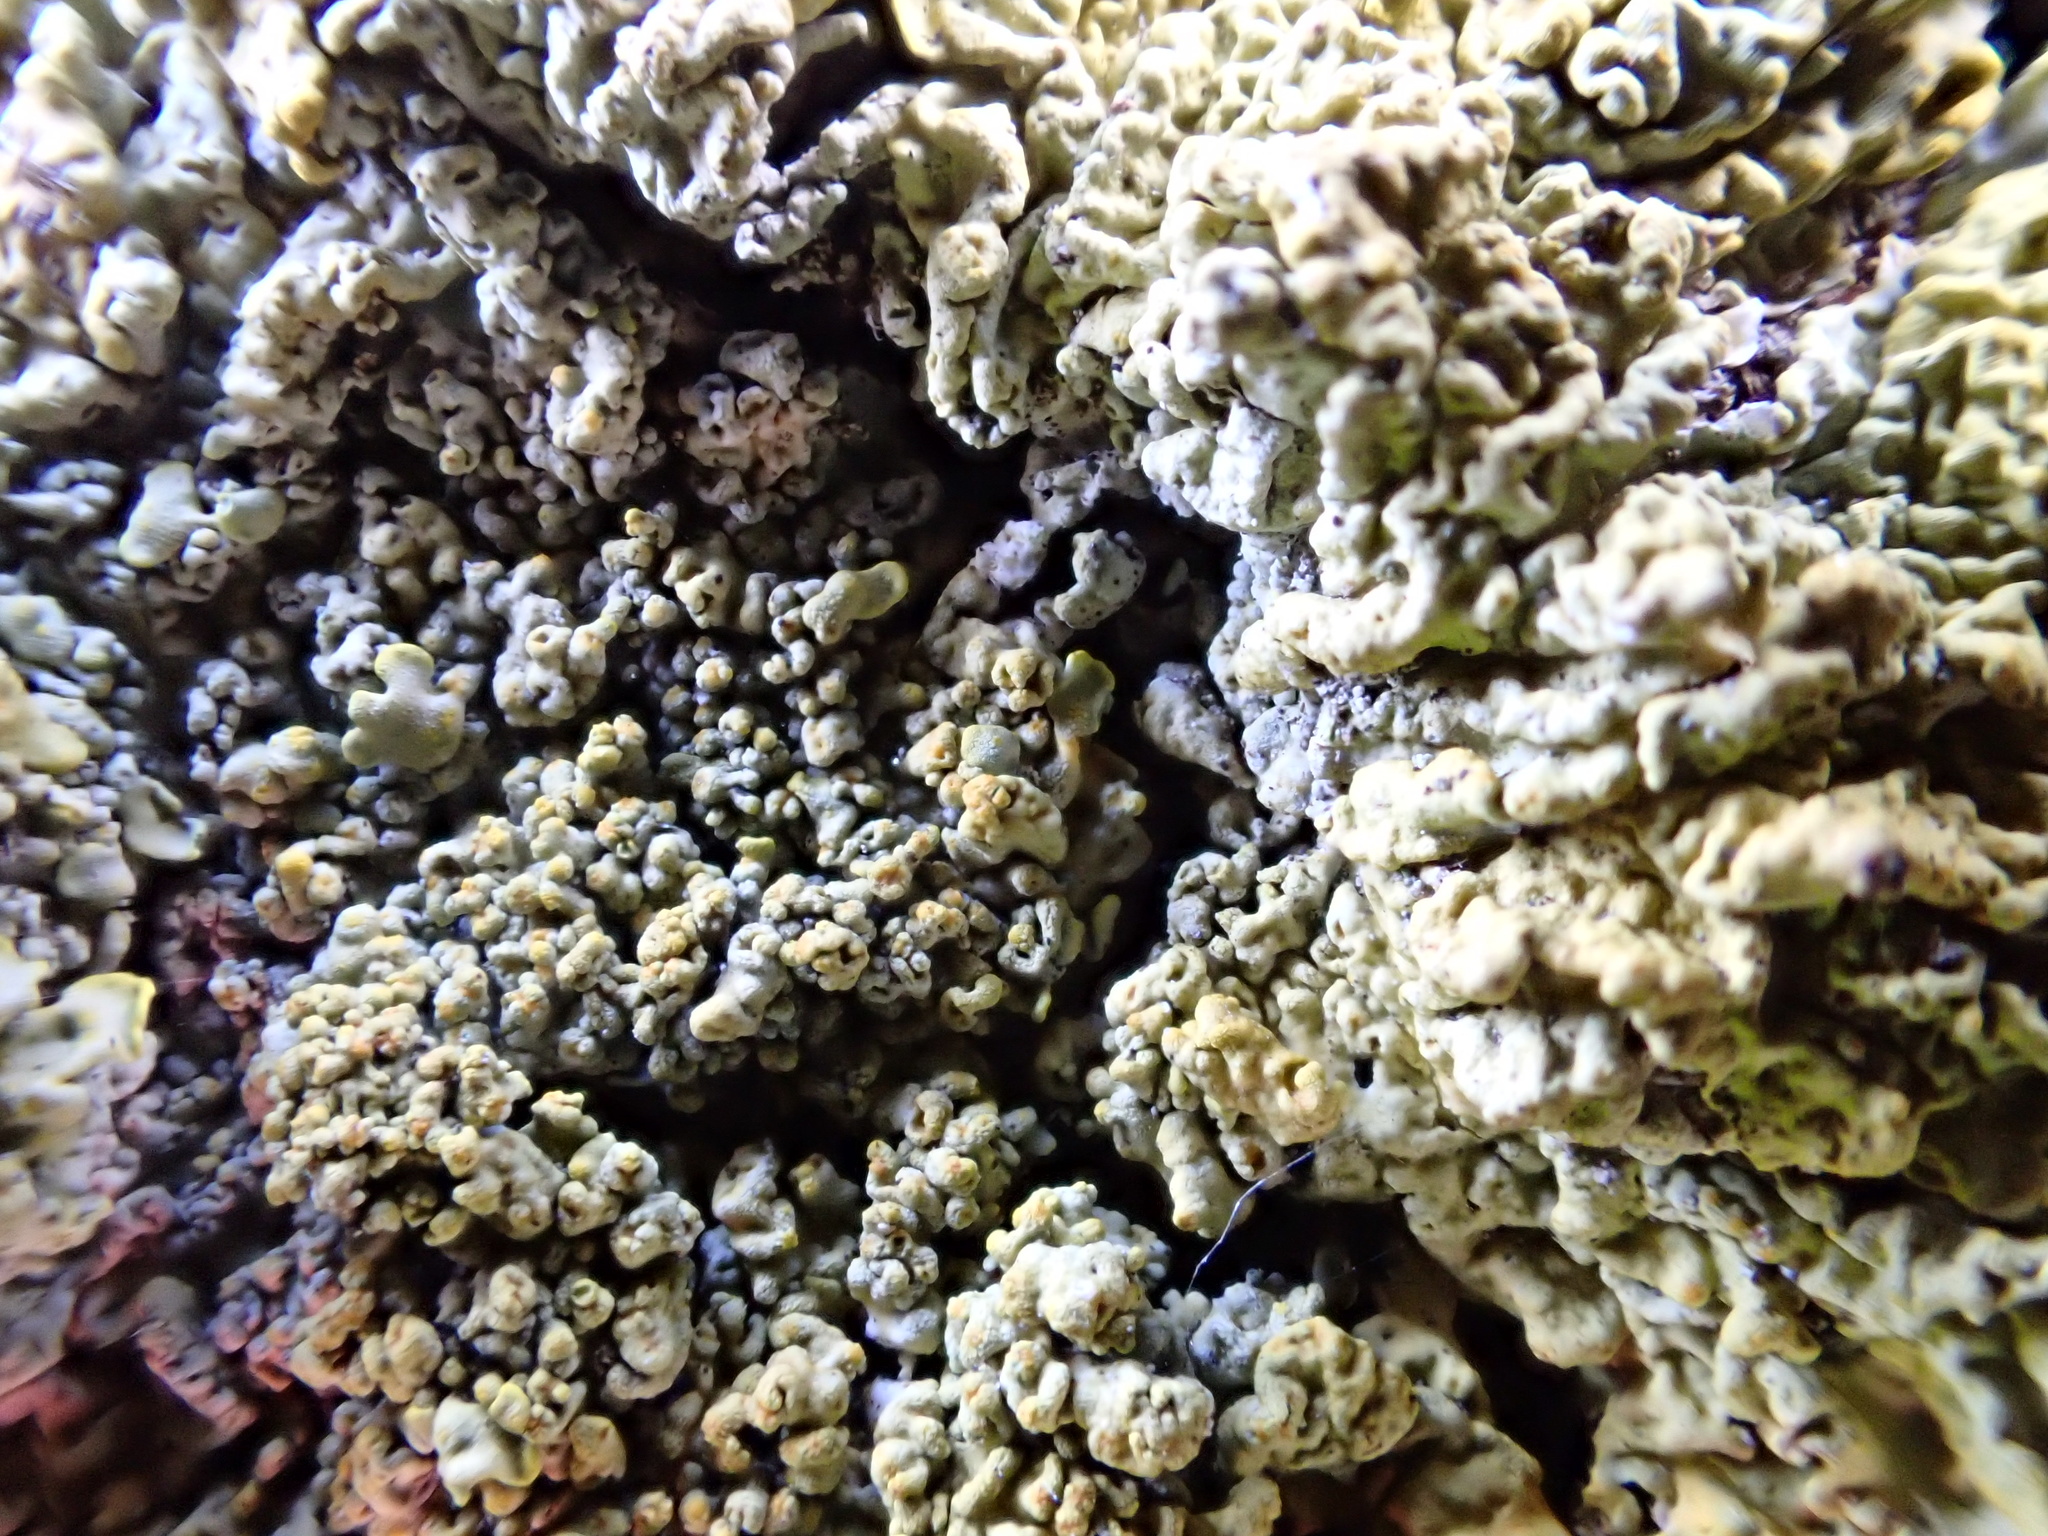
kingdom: Fungi
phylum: Ascomycota
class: Lecanoromycetes
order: Teloschistales
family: Teloschistaceae
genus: Xanthoria
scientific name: Xanthoria calcicola
